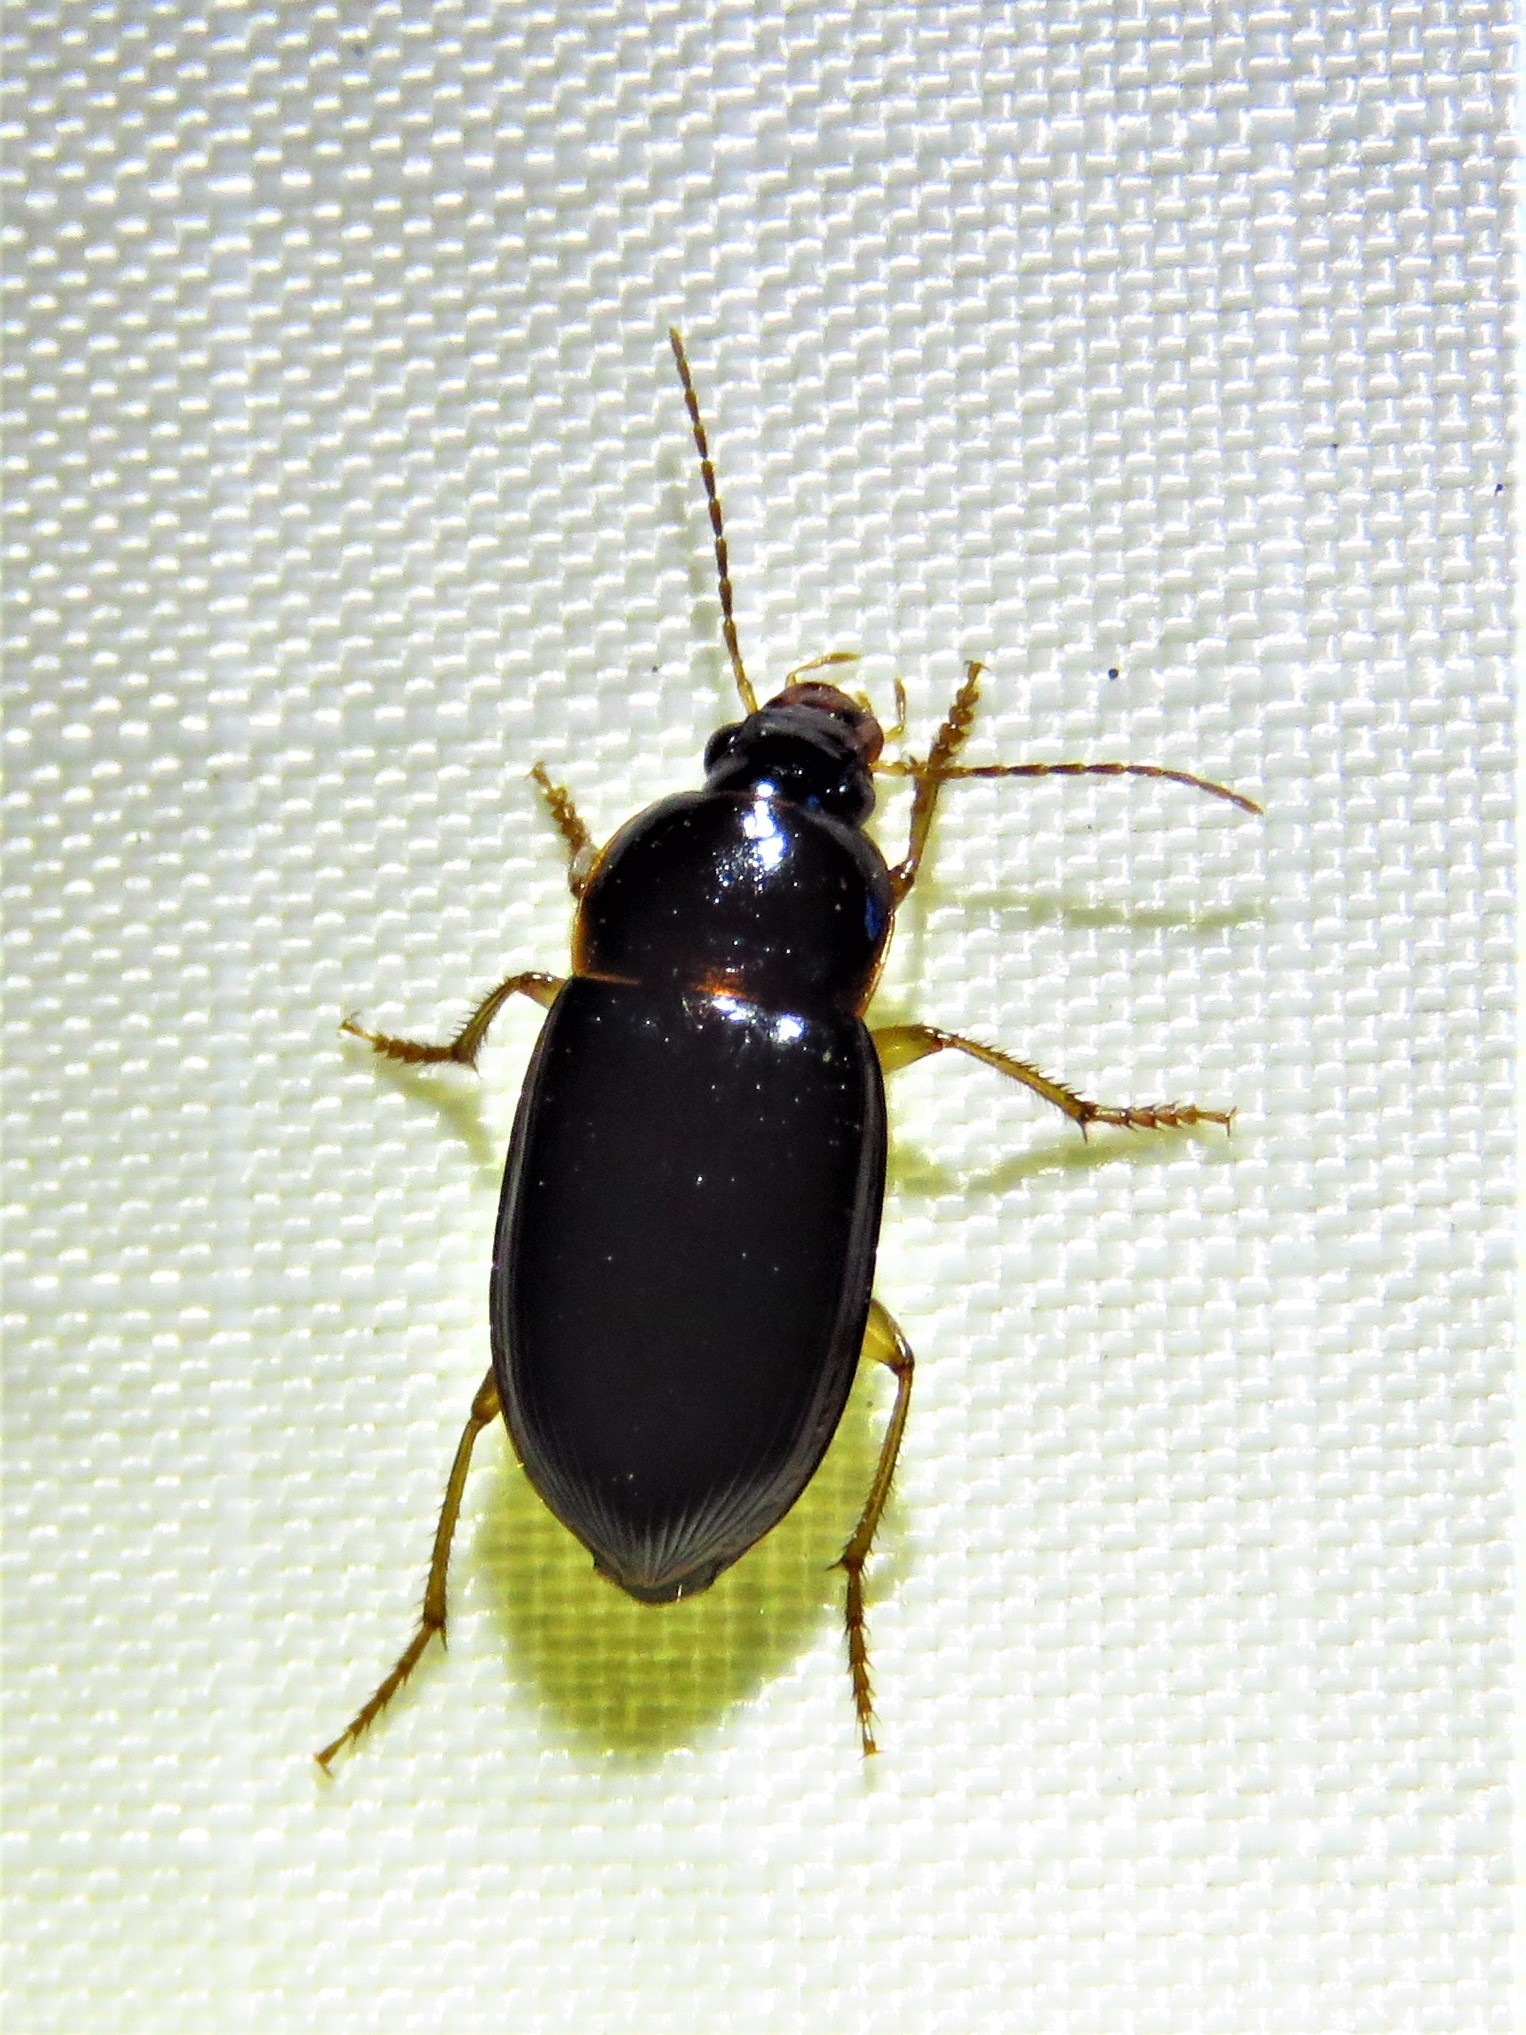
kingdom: Animalia
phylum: Arthropoda
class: Insecta
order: Coleoptera
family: Carabidae
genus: Notiobia
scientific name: Notiobia terminata
